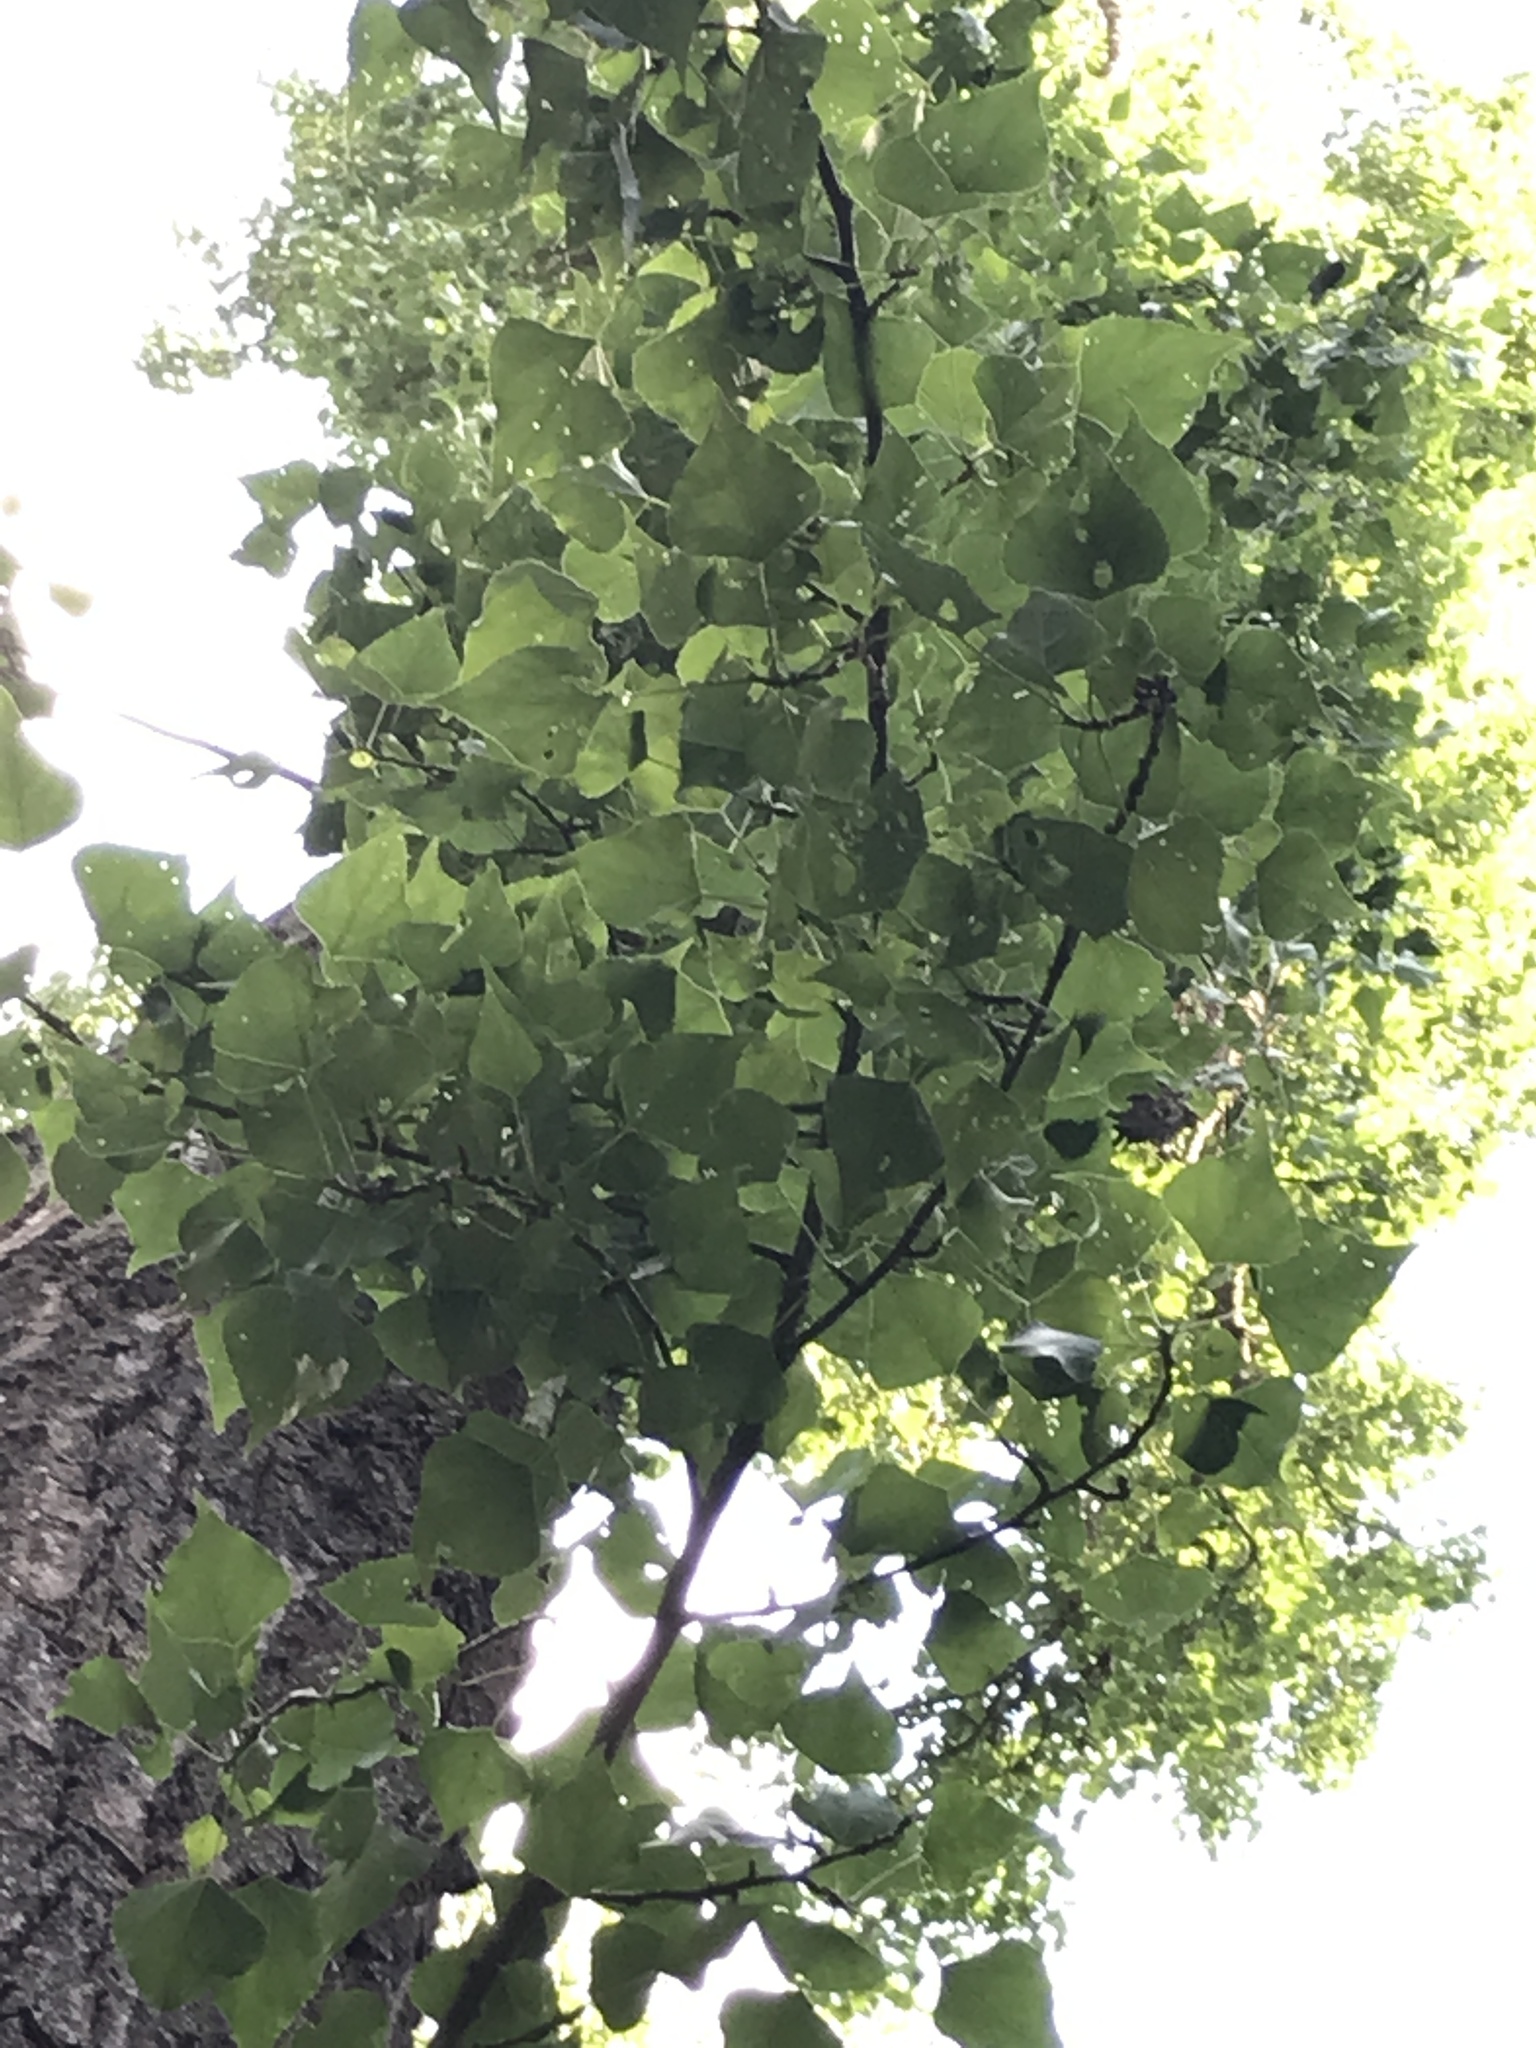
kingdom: Plantae
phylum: Tracheophyta
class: Magnoliopsida
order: Malpighiales
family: Salicaceae
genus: Populus
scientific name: Populus nigra
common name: Black poplar
